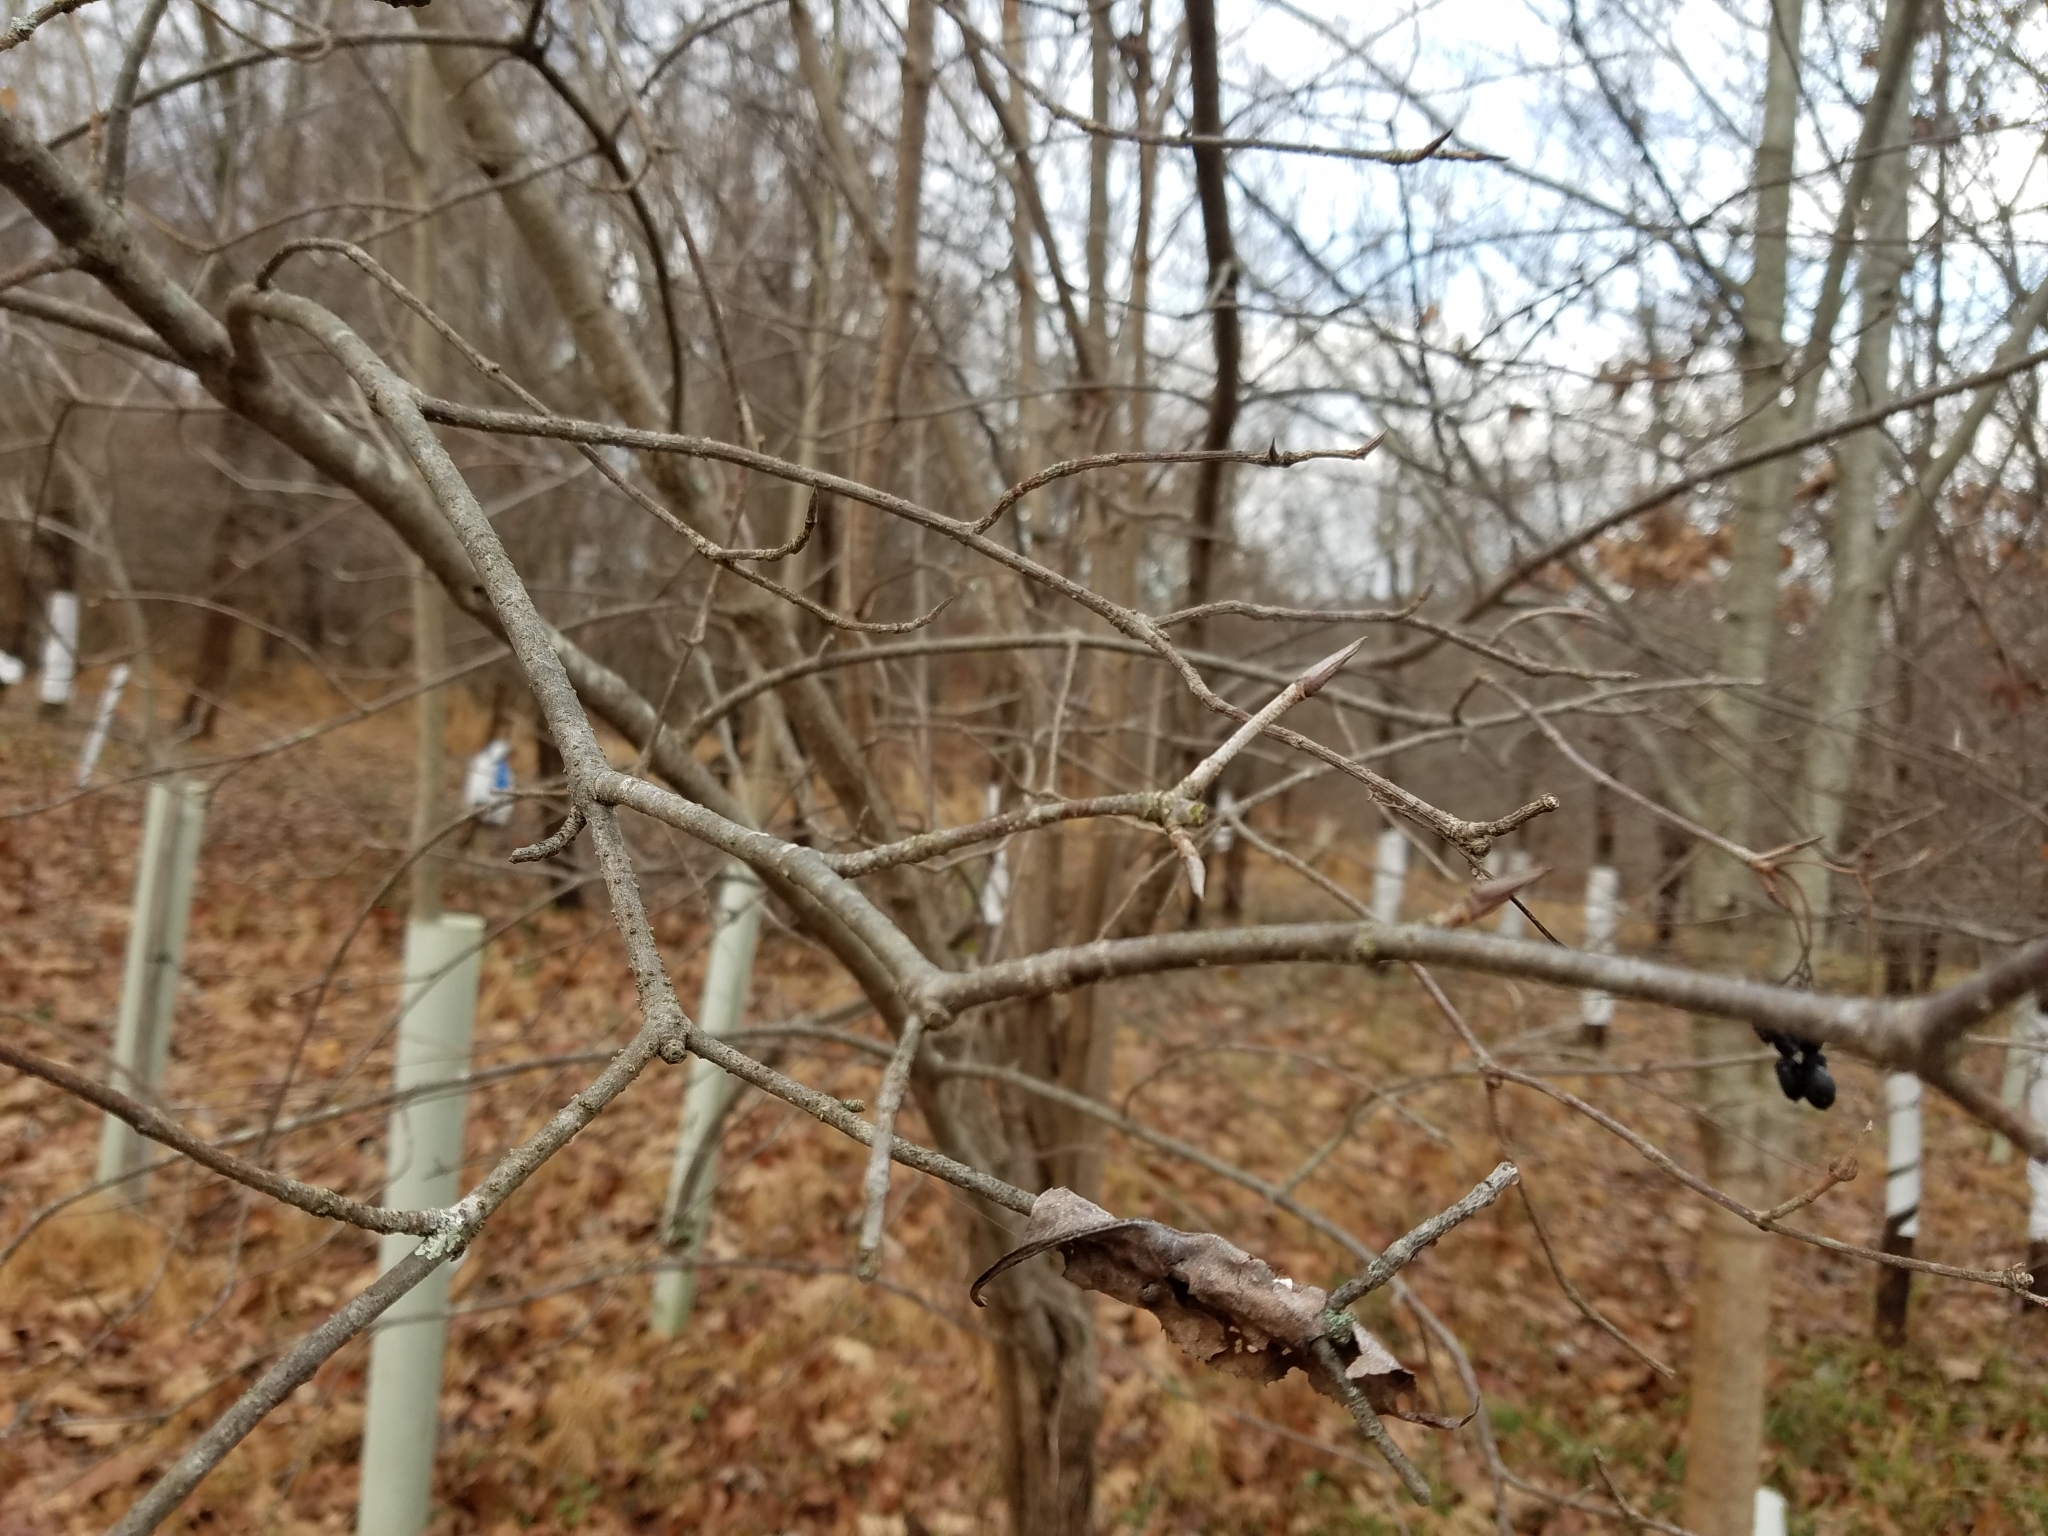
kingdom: Plantae
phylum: Tracheophyta
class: Magnoliopsida
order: Dipsacales
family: Viburnaceae
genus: Viburnum
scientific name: Viburnum prunifolium
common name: Black haw
